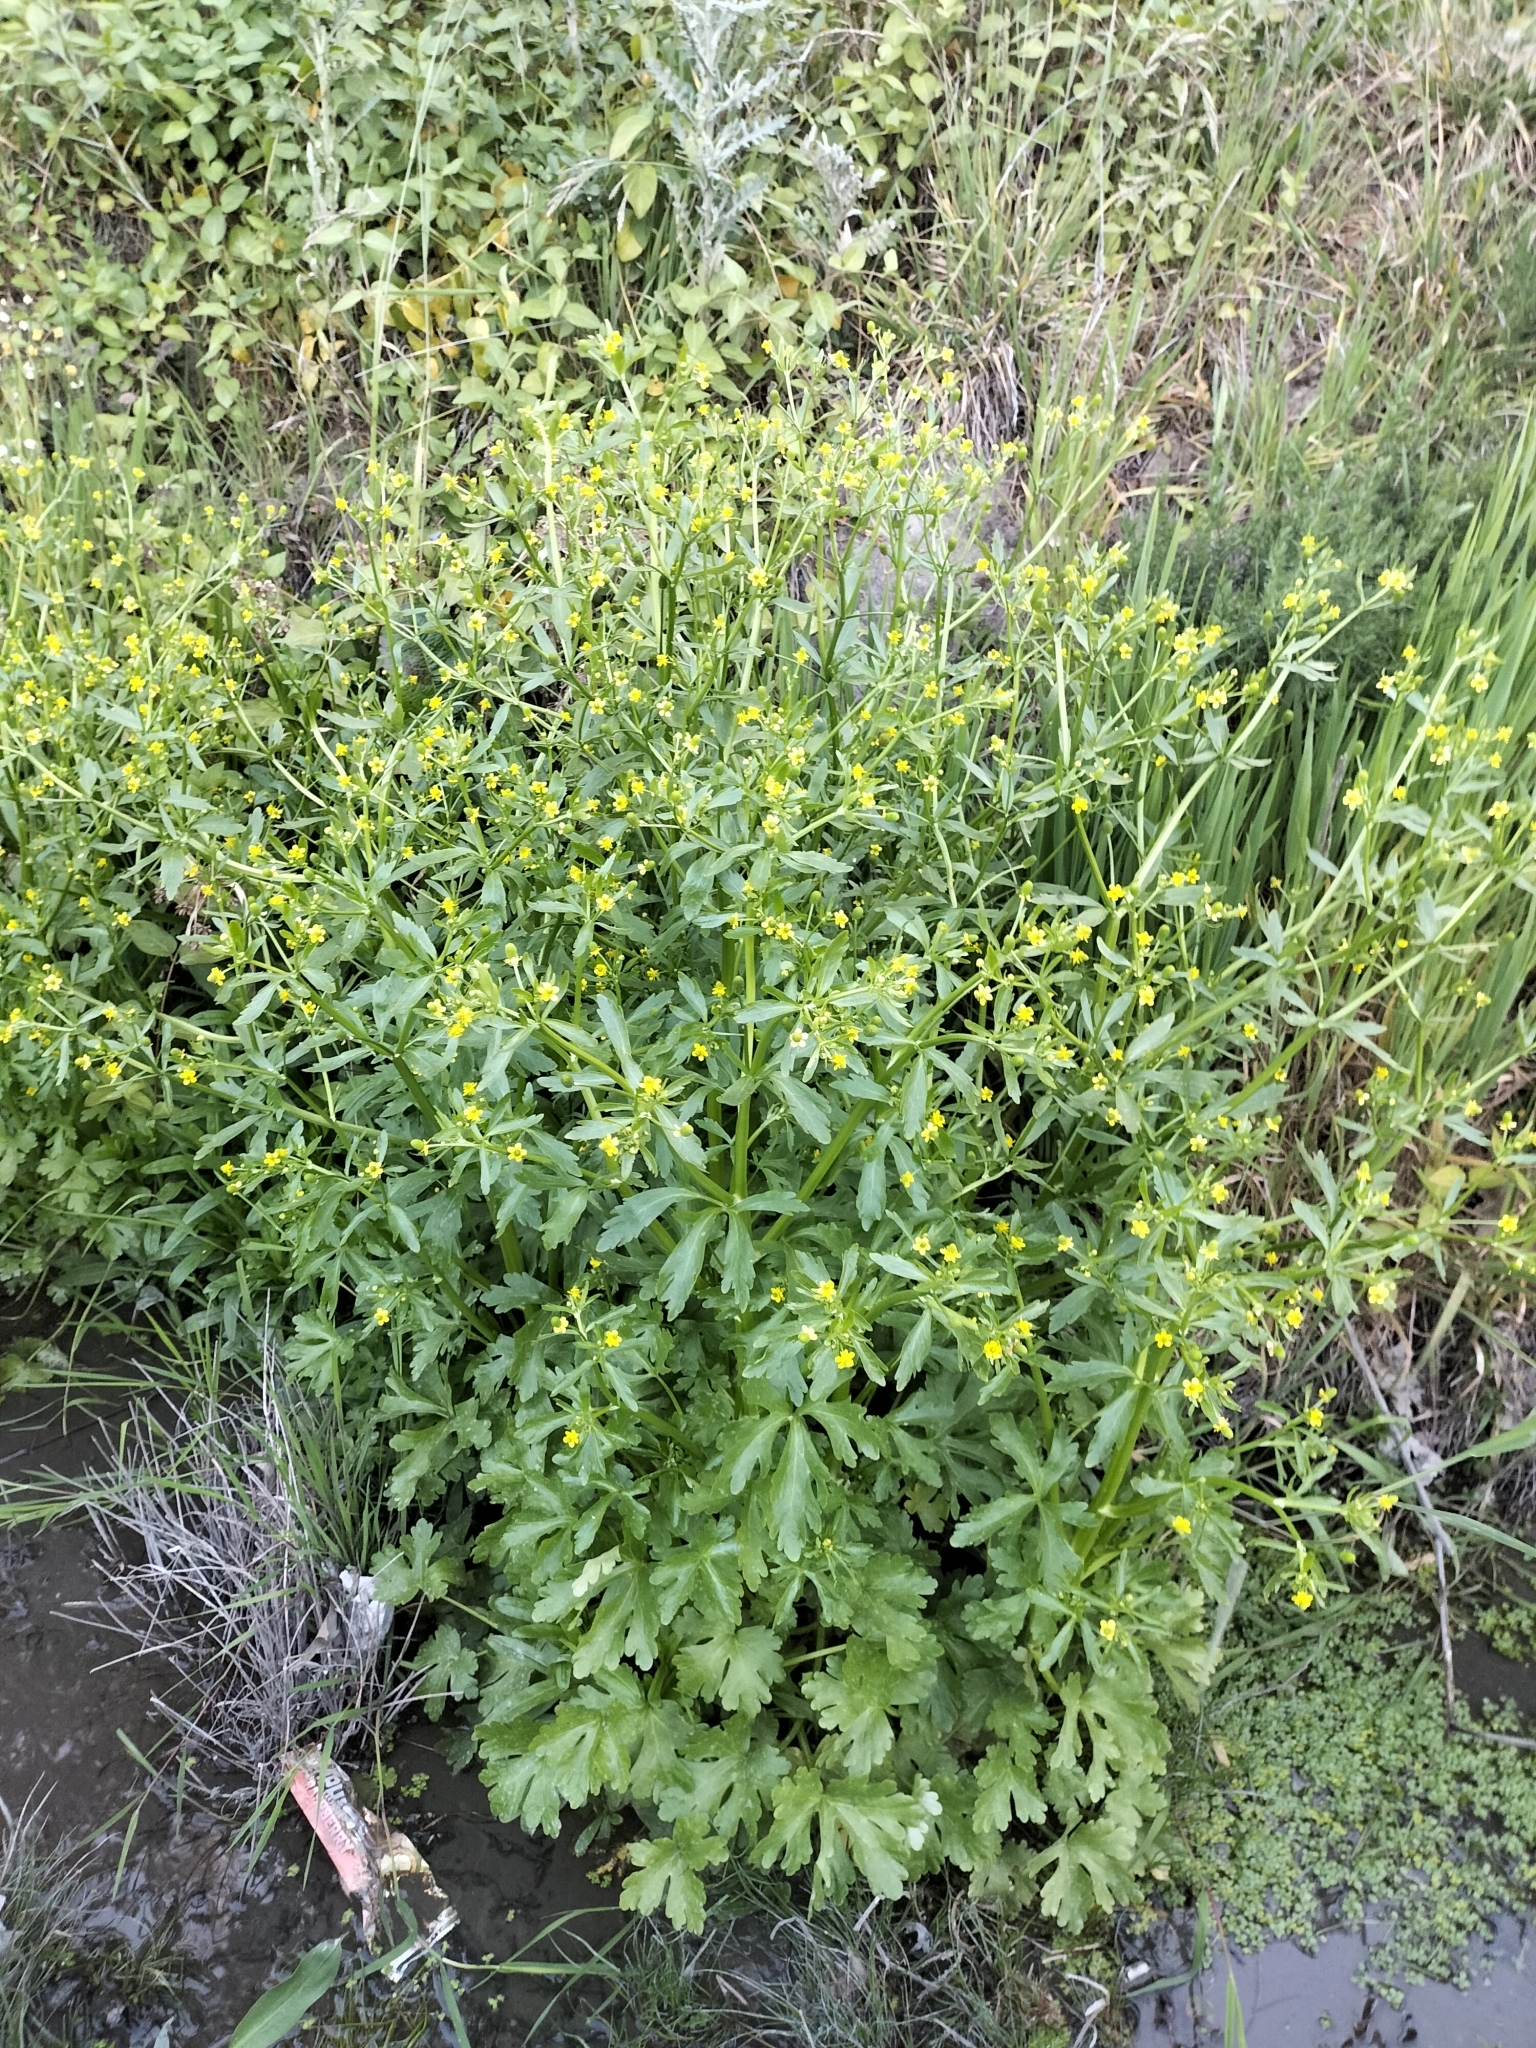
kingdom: Plantae
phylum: Tracheophyta
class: Magnoliopsida
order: Ranunculales
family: Ranunculaceae
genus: Ranunculus
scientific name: Ranunculus sceleratus
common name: Celery-leaved buttercup
